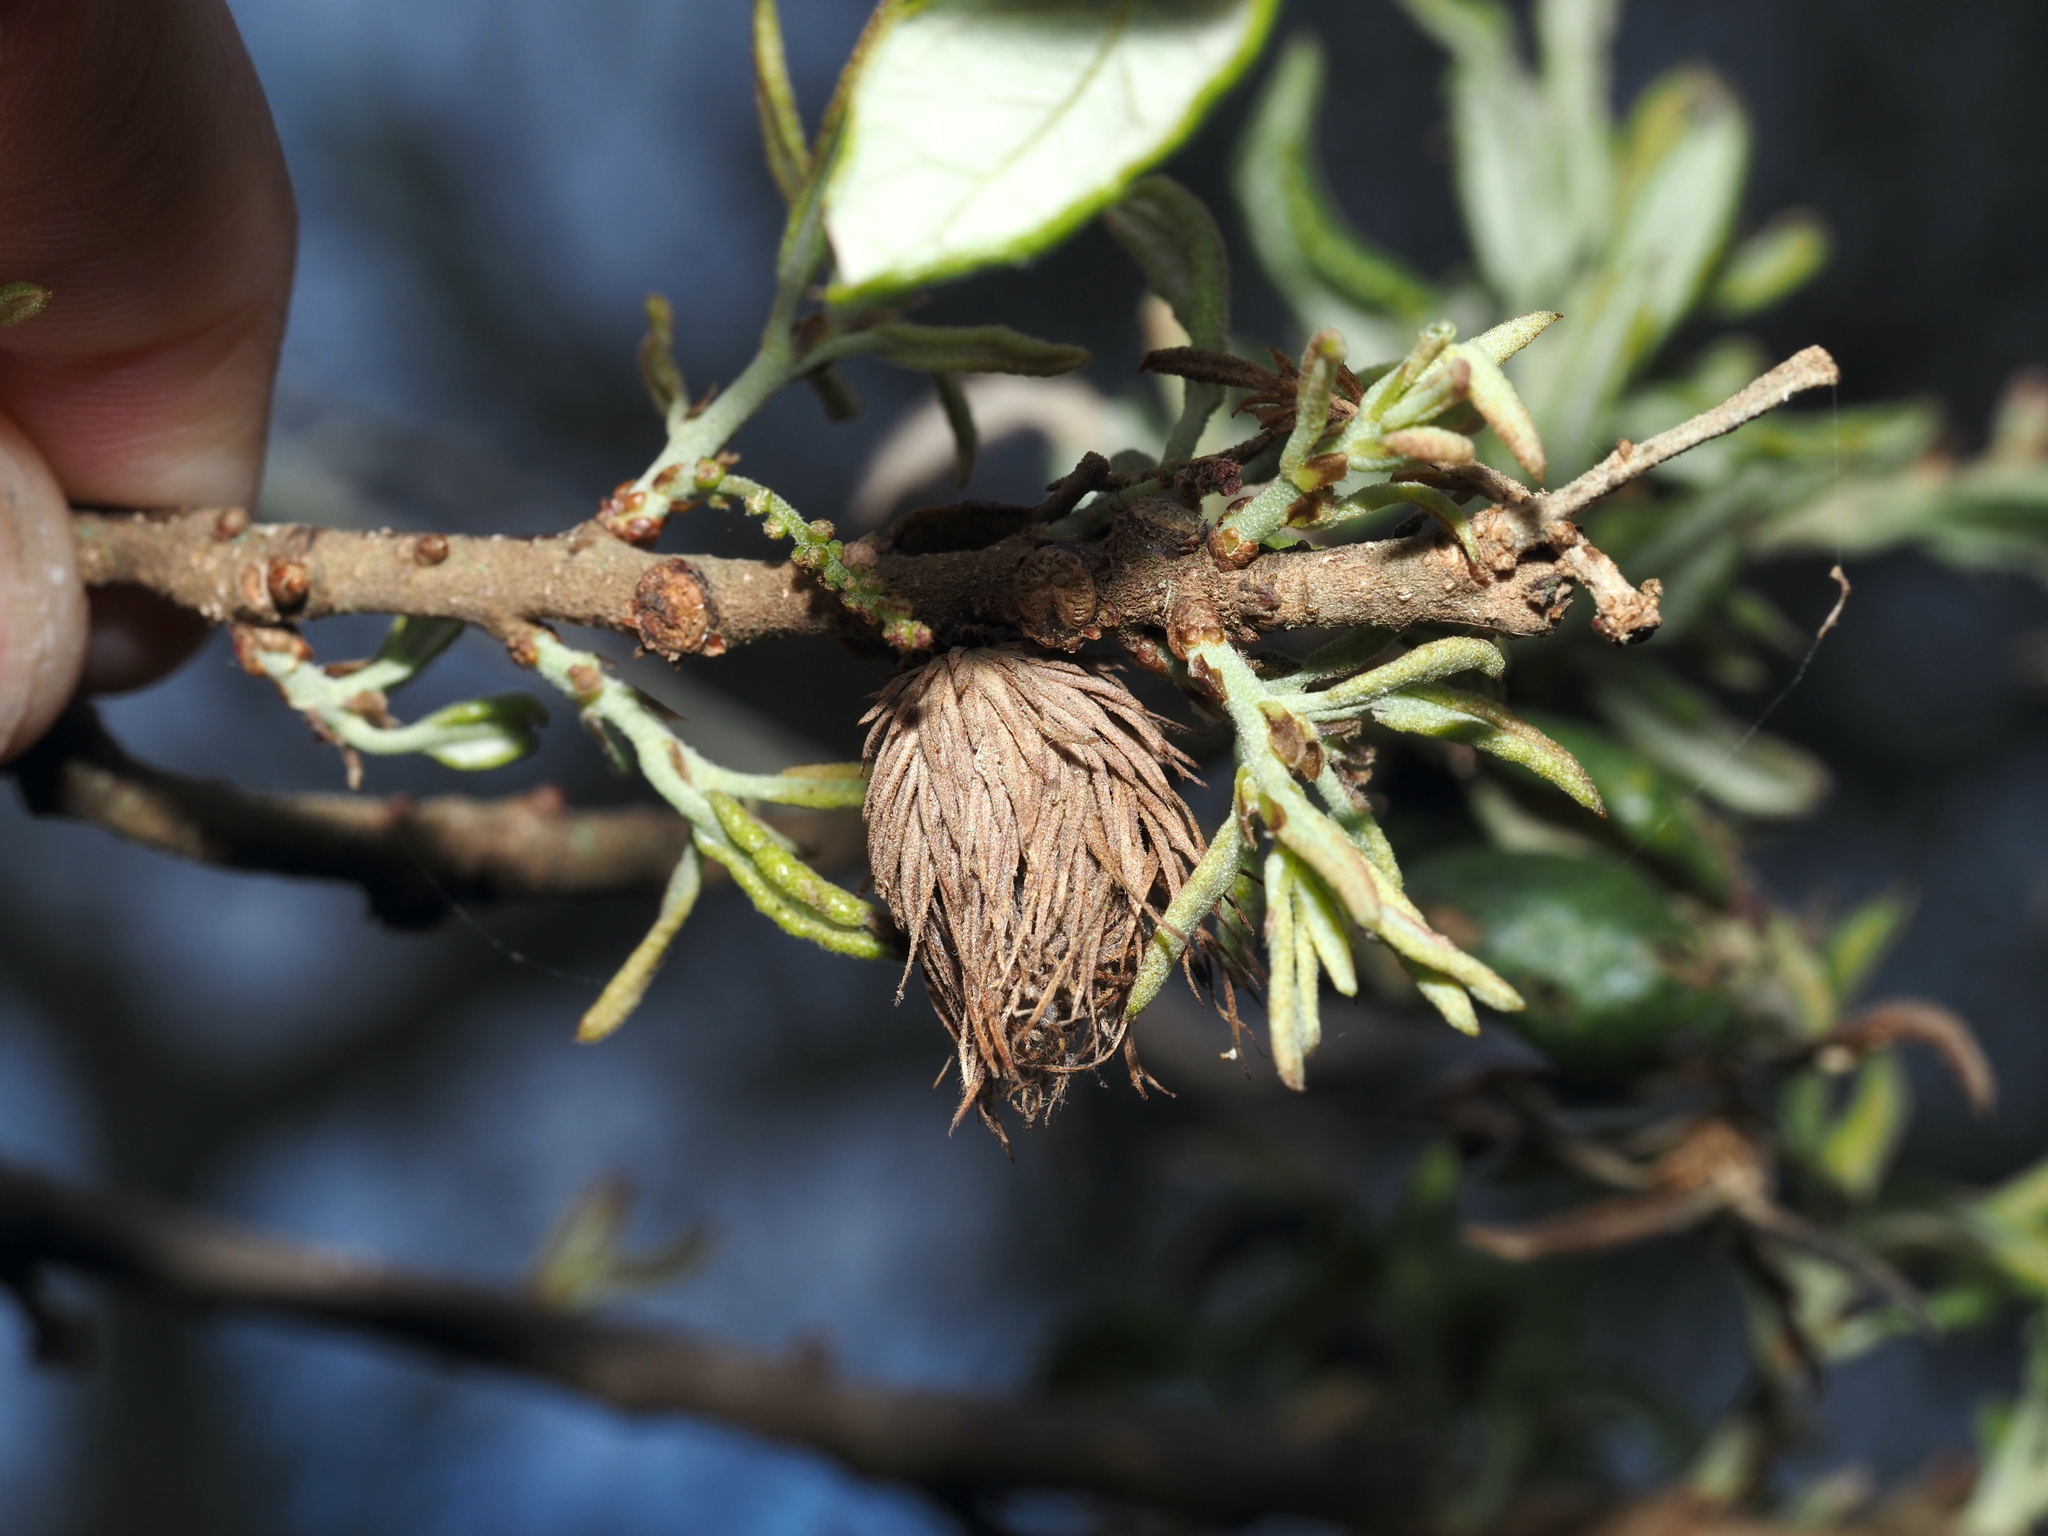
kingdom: Animalia
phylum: Arthropoda
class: Insecta
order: Hymenoptera
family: Cynipidae
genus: Andricus
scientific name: Andricus quercusfoliatus
